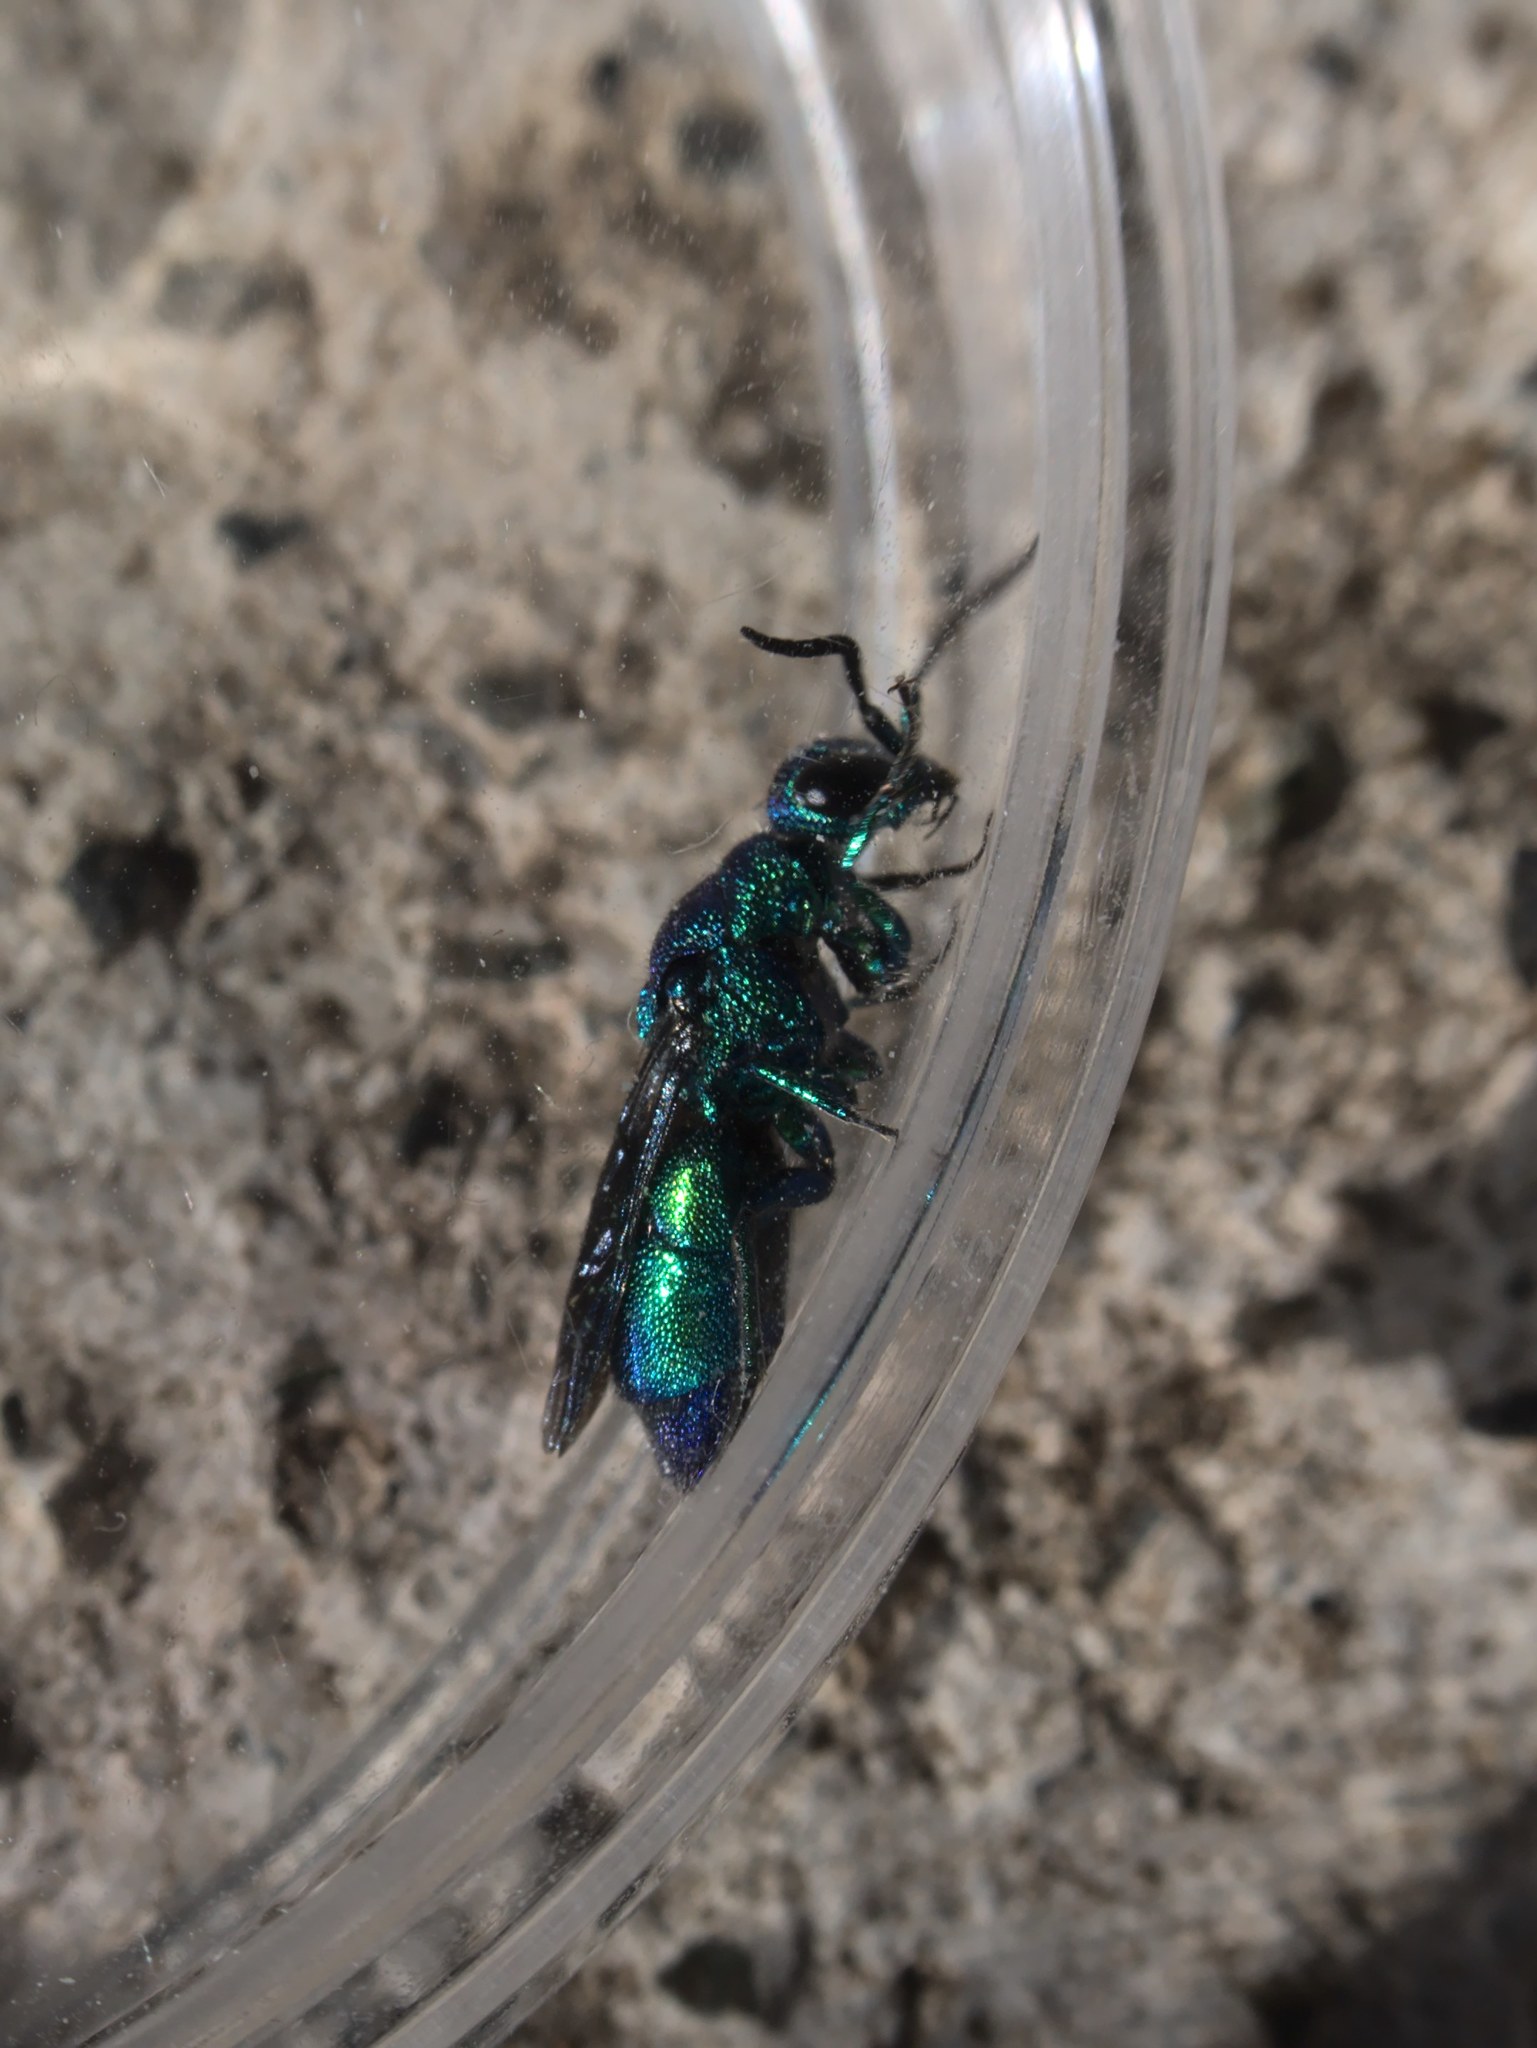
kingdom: Animalia
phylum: Arthropoda
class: Insecta
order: Hymenoptera
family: Chrysididae
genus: Chrysis
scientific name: Chrysis angolensis
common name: Cuckoo wasp
